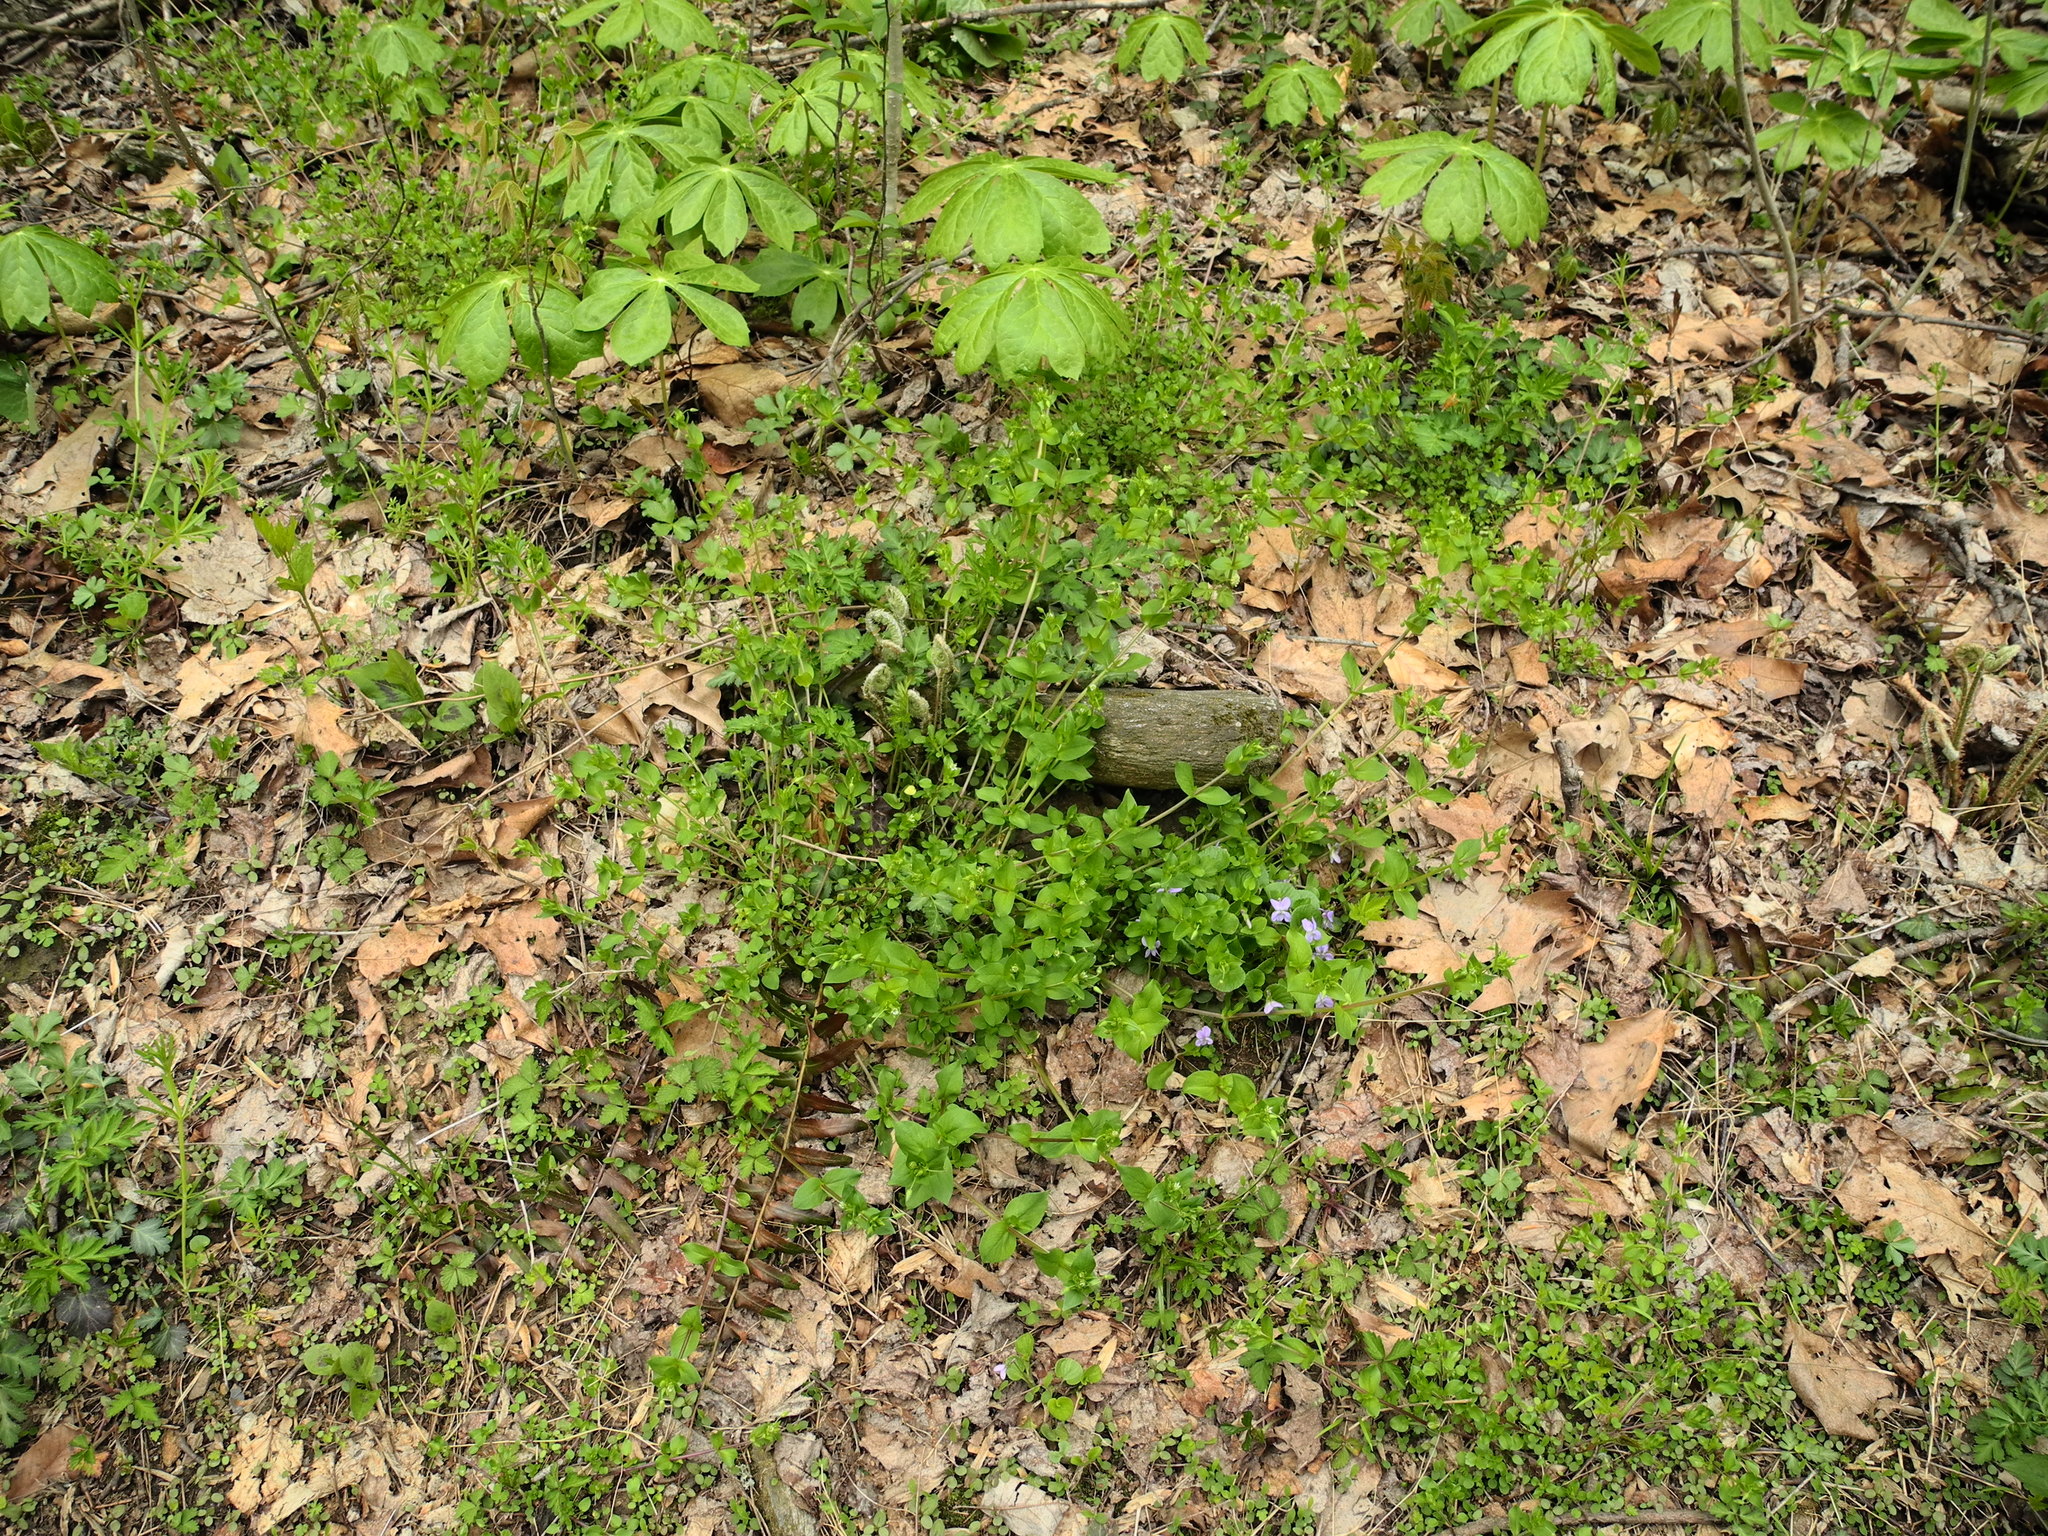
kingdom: Plantae
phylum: Tracheophyta
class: Magnoliopsida
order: Malpighiales
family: Violaceae
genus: Viola
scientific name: Viola rostrata
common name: Long-spur violet
